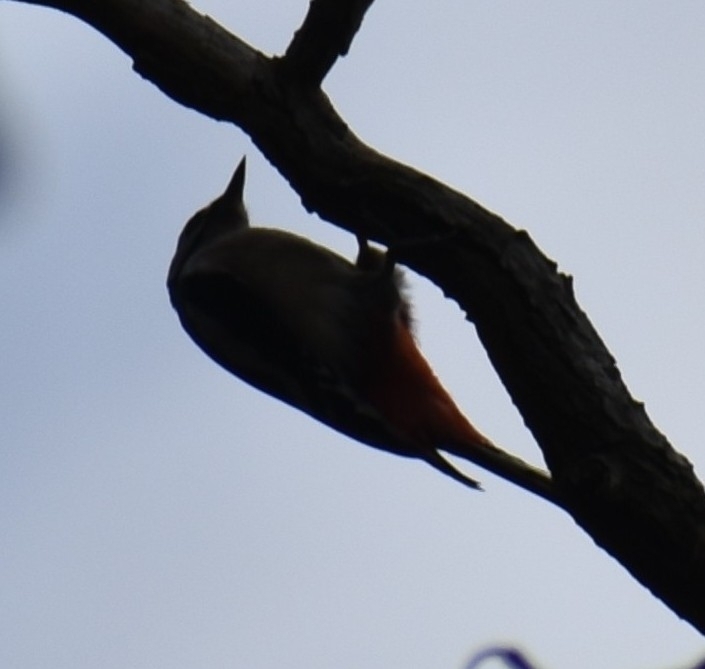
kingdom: Animalia
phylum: Chordata
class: Aves
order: Piciformes
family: Picidae
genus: Dendrocopos
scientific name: Dendrocopos major
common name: Great spotted woodpecker
